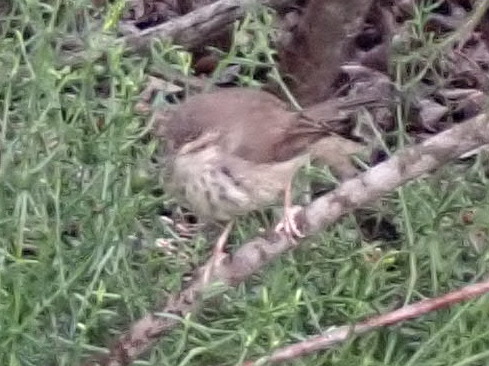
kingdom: Animalia
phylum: Chordata
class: Aves
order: Passeriformes
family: Cisticolidae
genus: Prinia
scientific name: Prinia maculosa
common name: Karoo prinia
